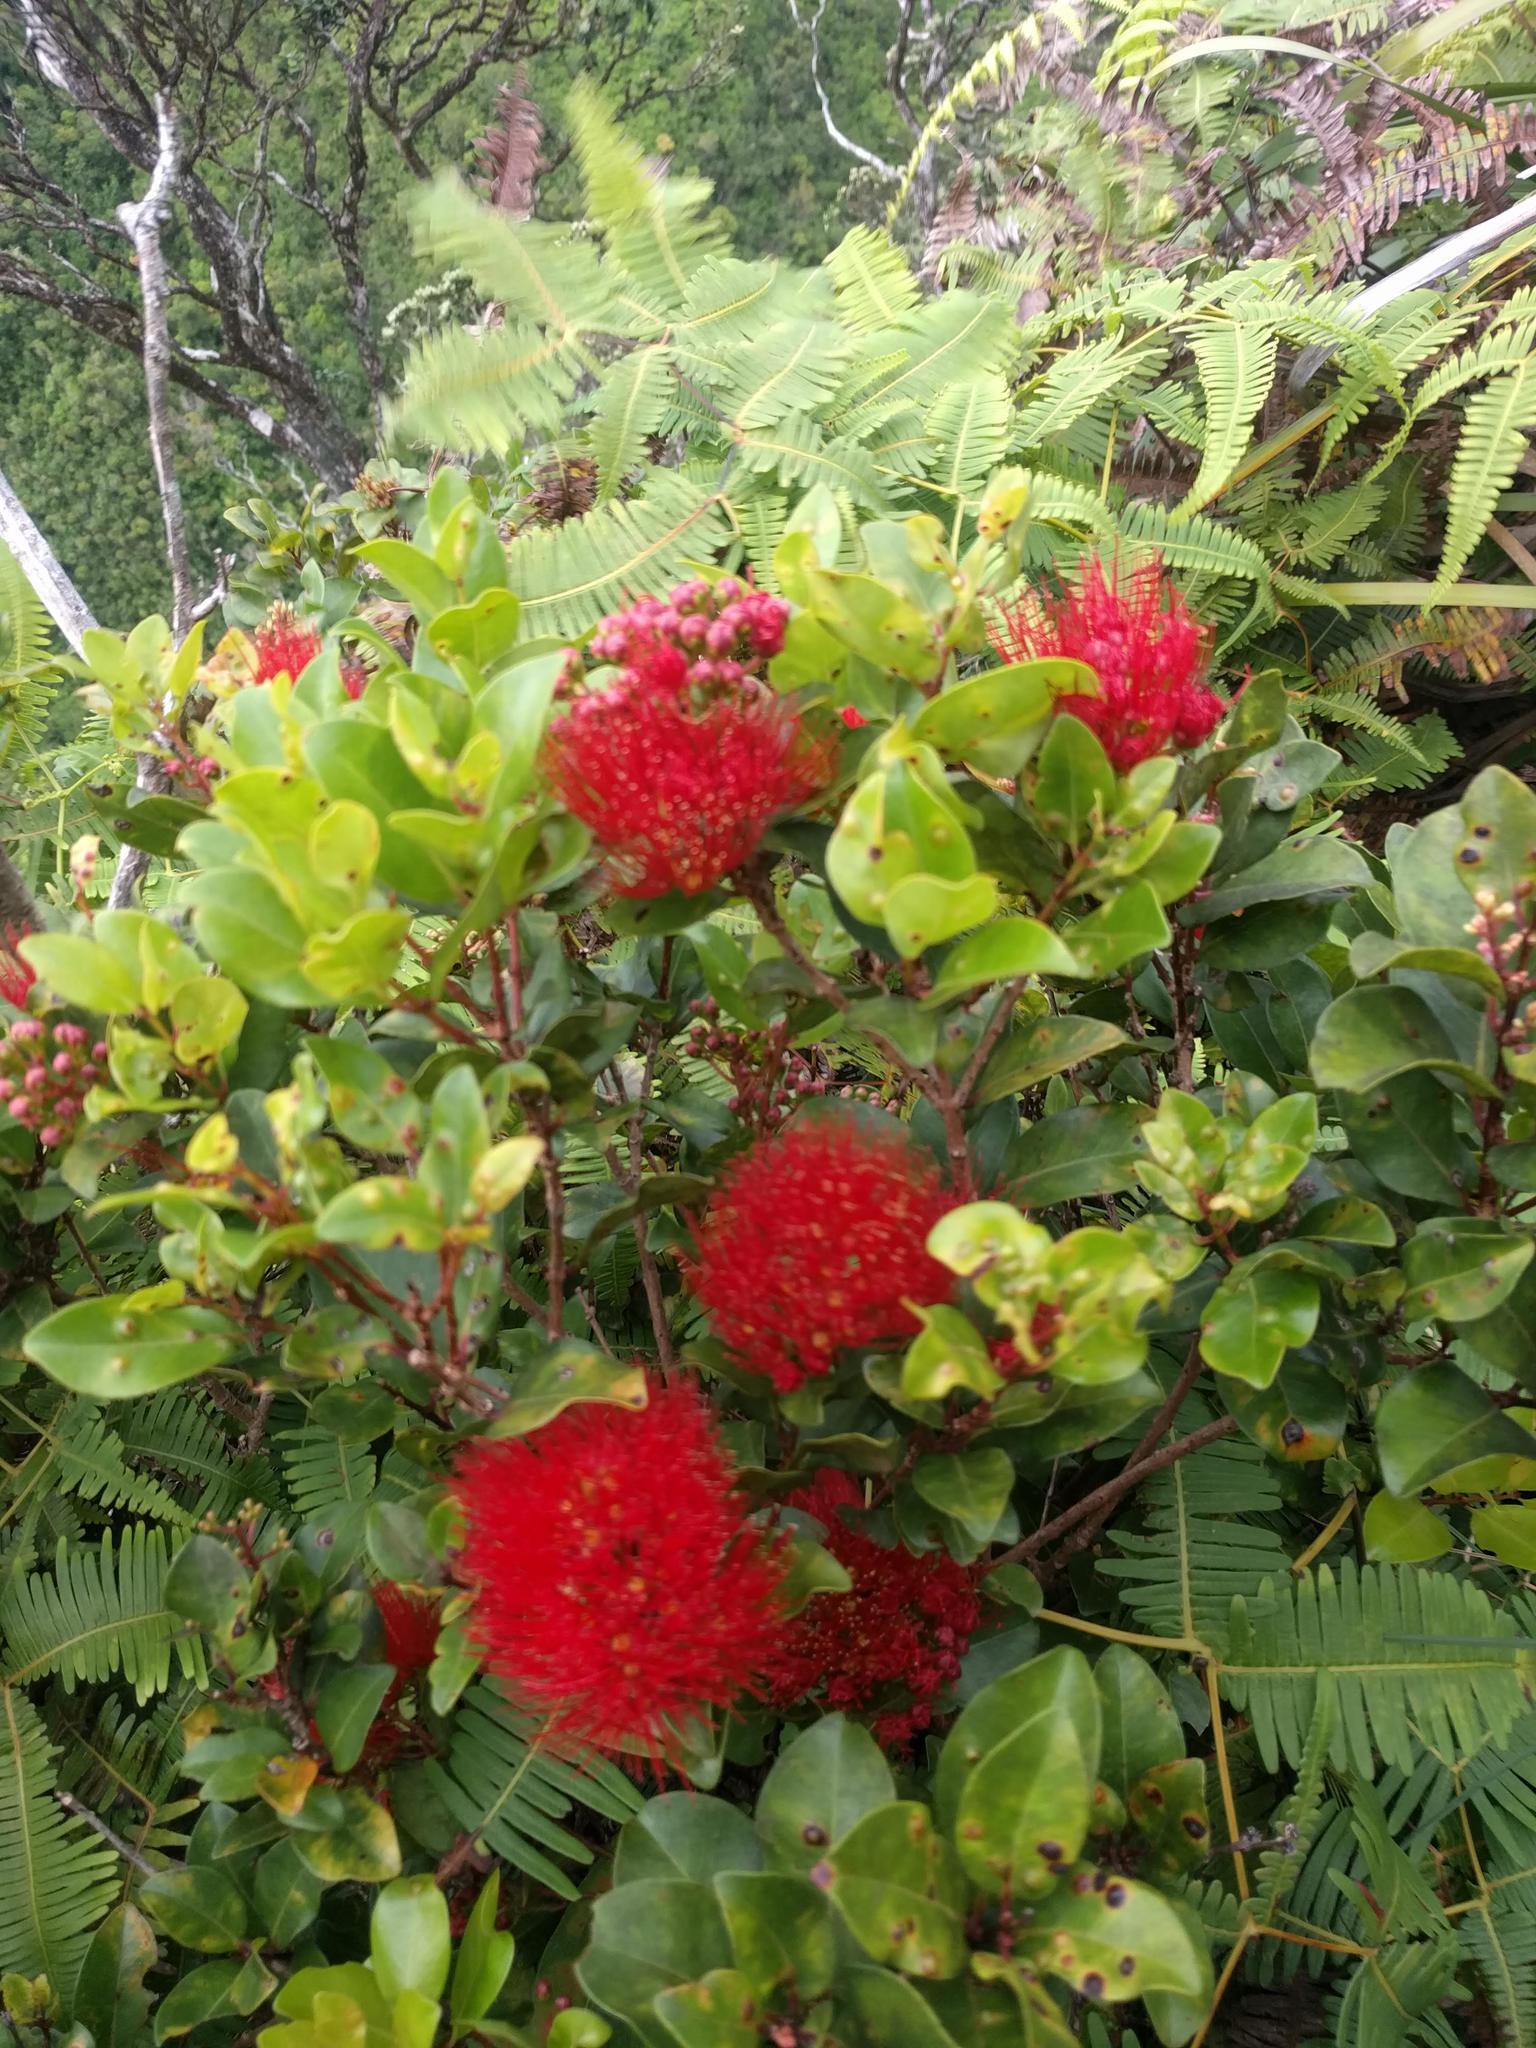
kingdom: Plantae
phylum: Tracheophyta
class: Magnoliopsida
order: Myrtales
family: Myrtaceae
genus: Metrosideros
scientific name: Metrosideros polymorpha
